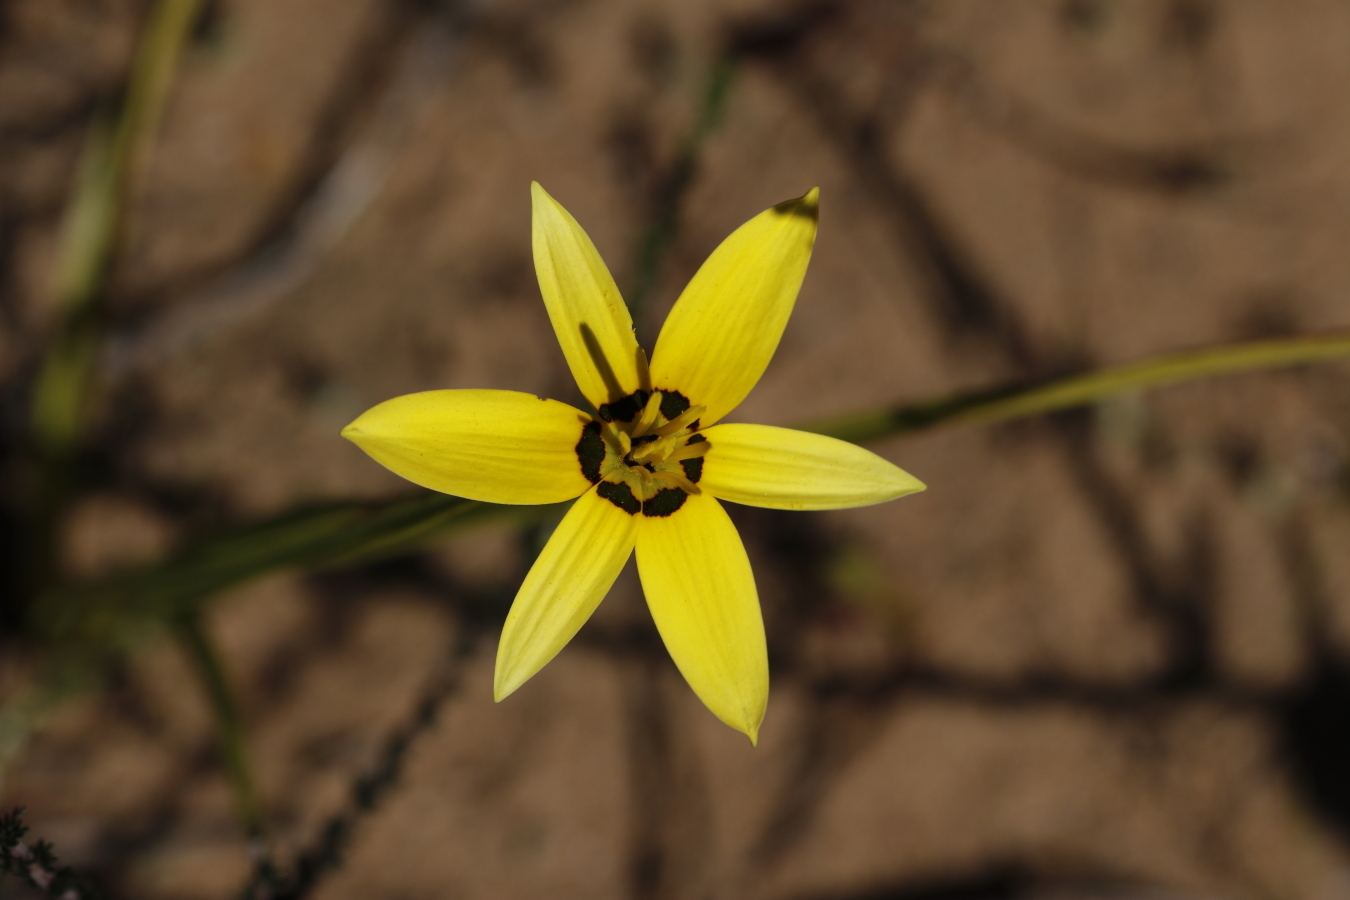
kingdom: Plantae
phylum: Tracheophyta
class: Liliopsida
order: Asparagales
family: Hypoxidaceae
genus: Pauridia
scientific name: Pauridia capensis
